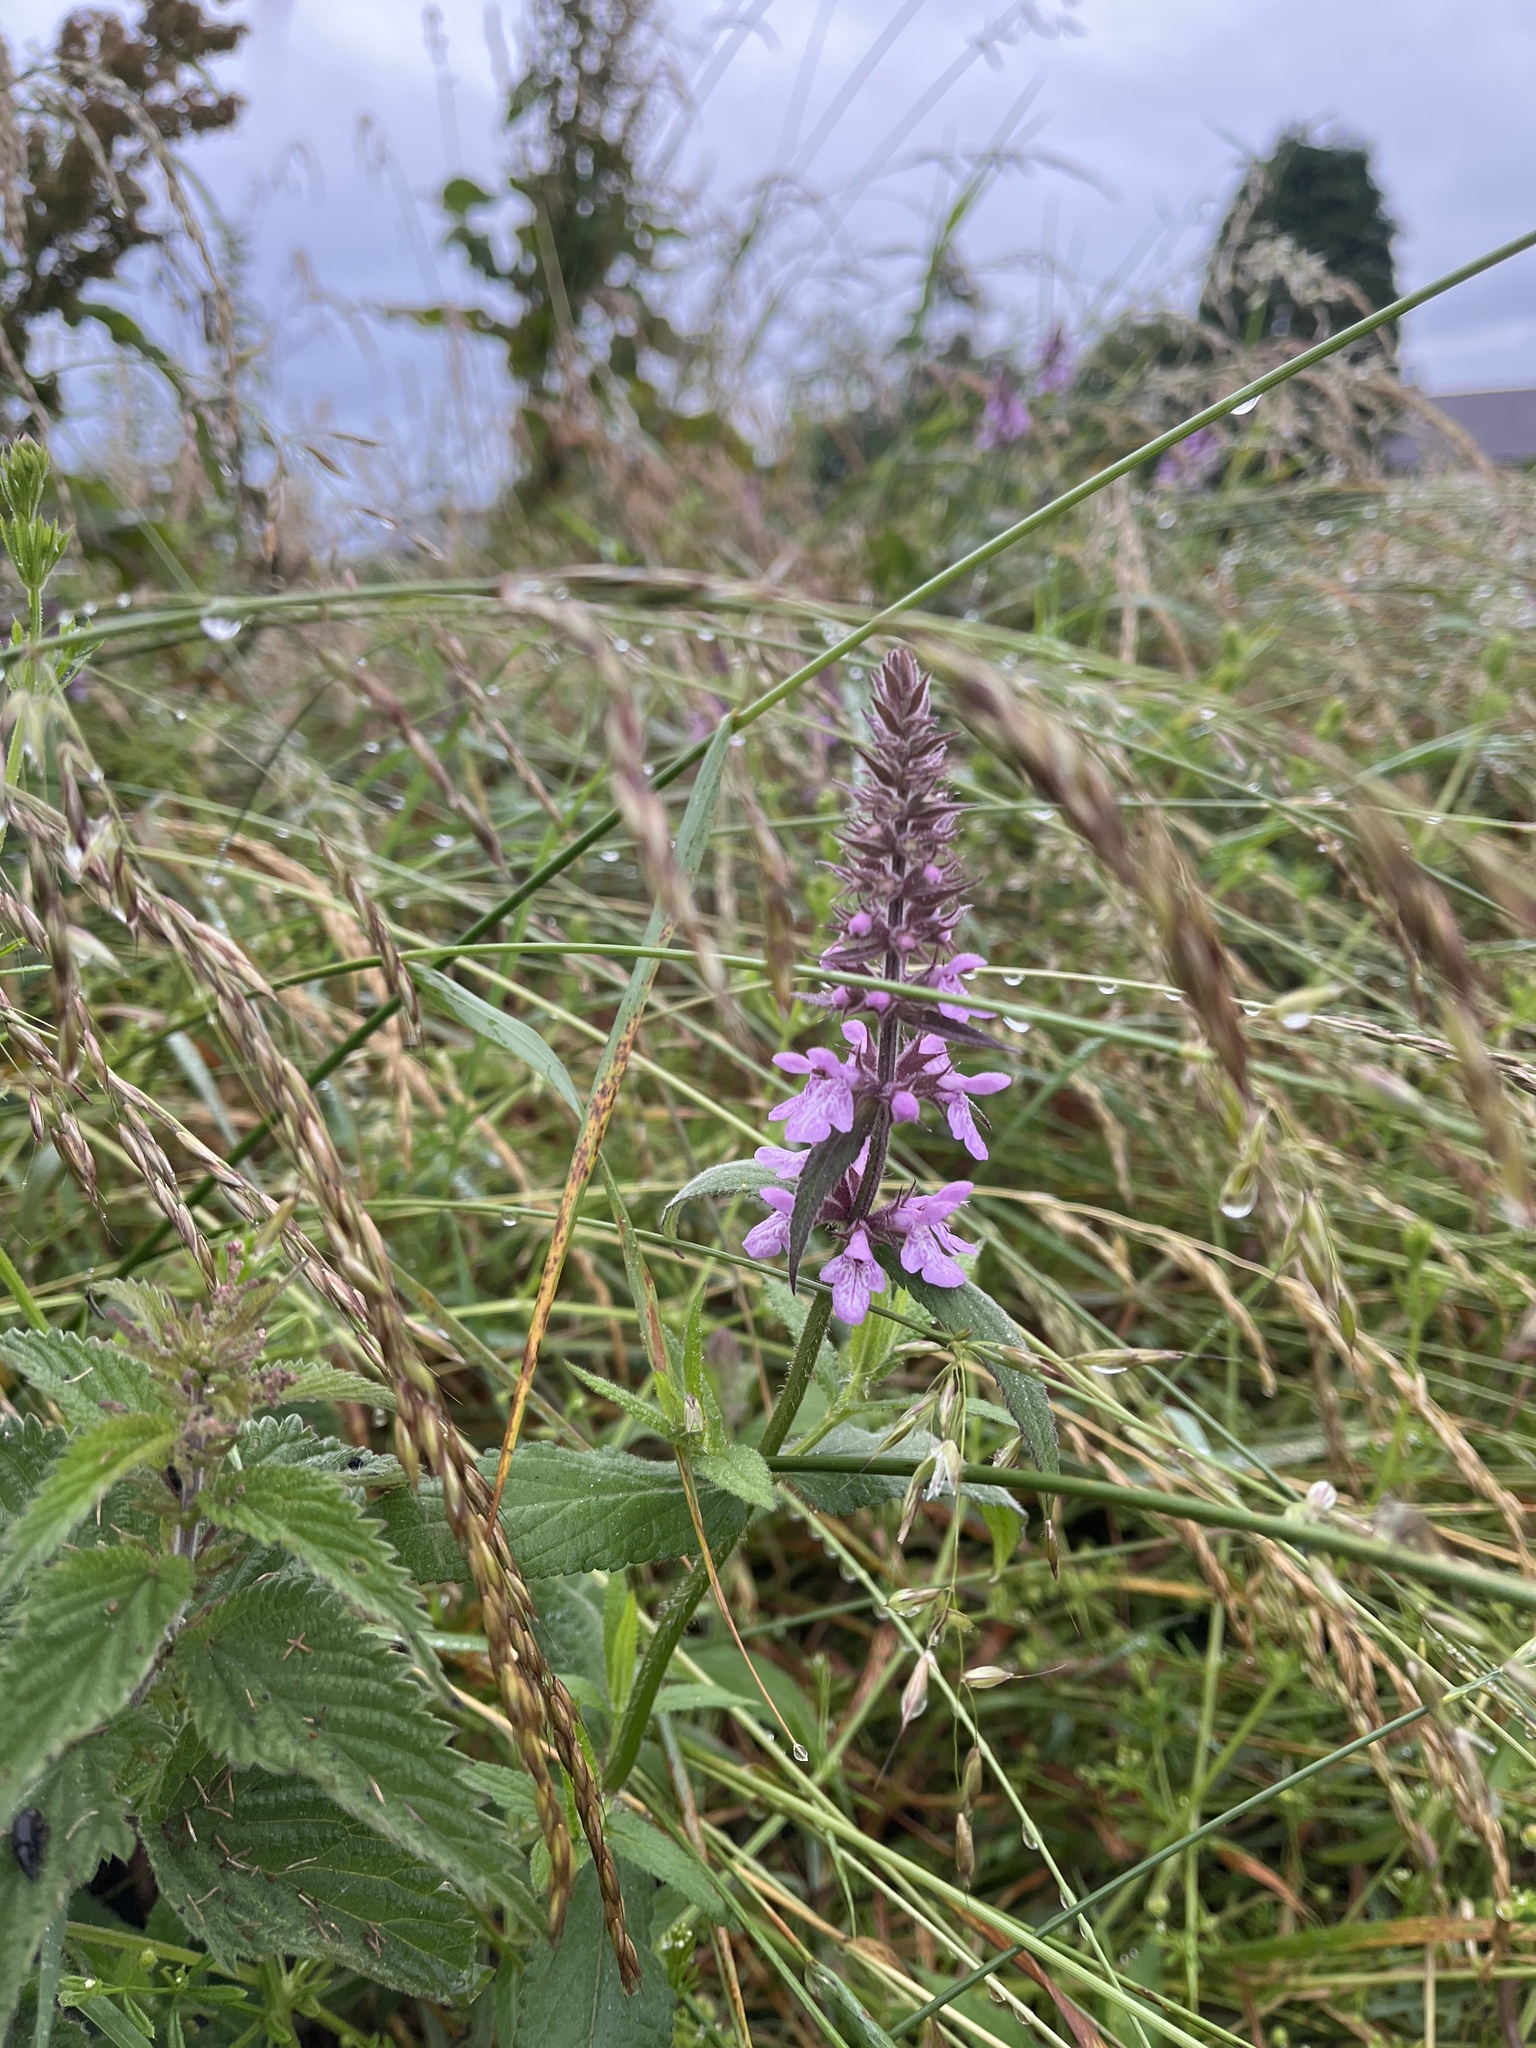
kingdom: Plantae
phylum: Tracheophyta
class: Magnoliopsida
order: Lamiales
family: Lamiaceae
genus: Stachys
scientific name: Stachys palustris
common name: Marsh woundwort
